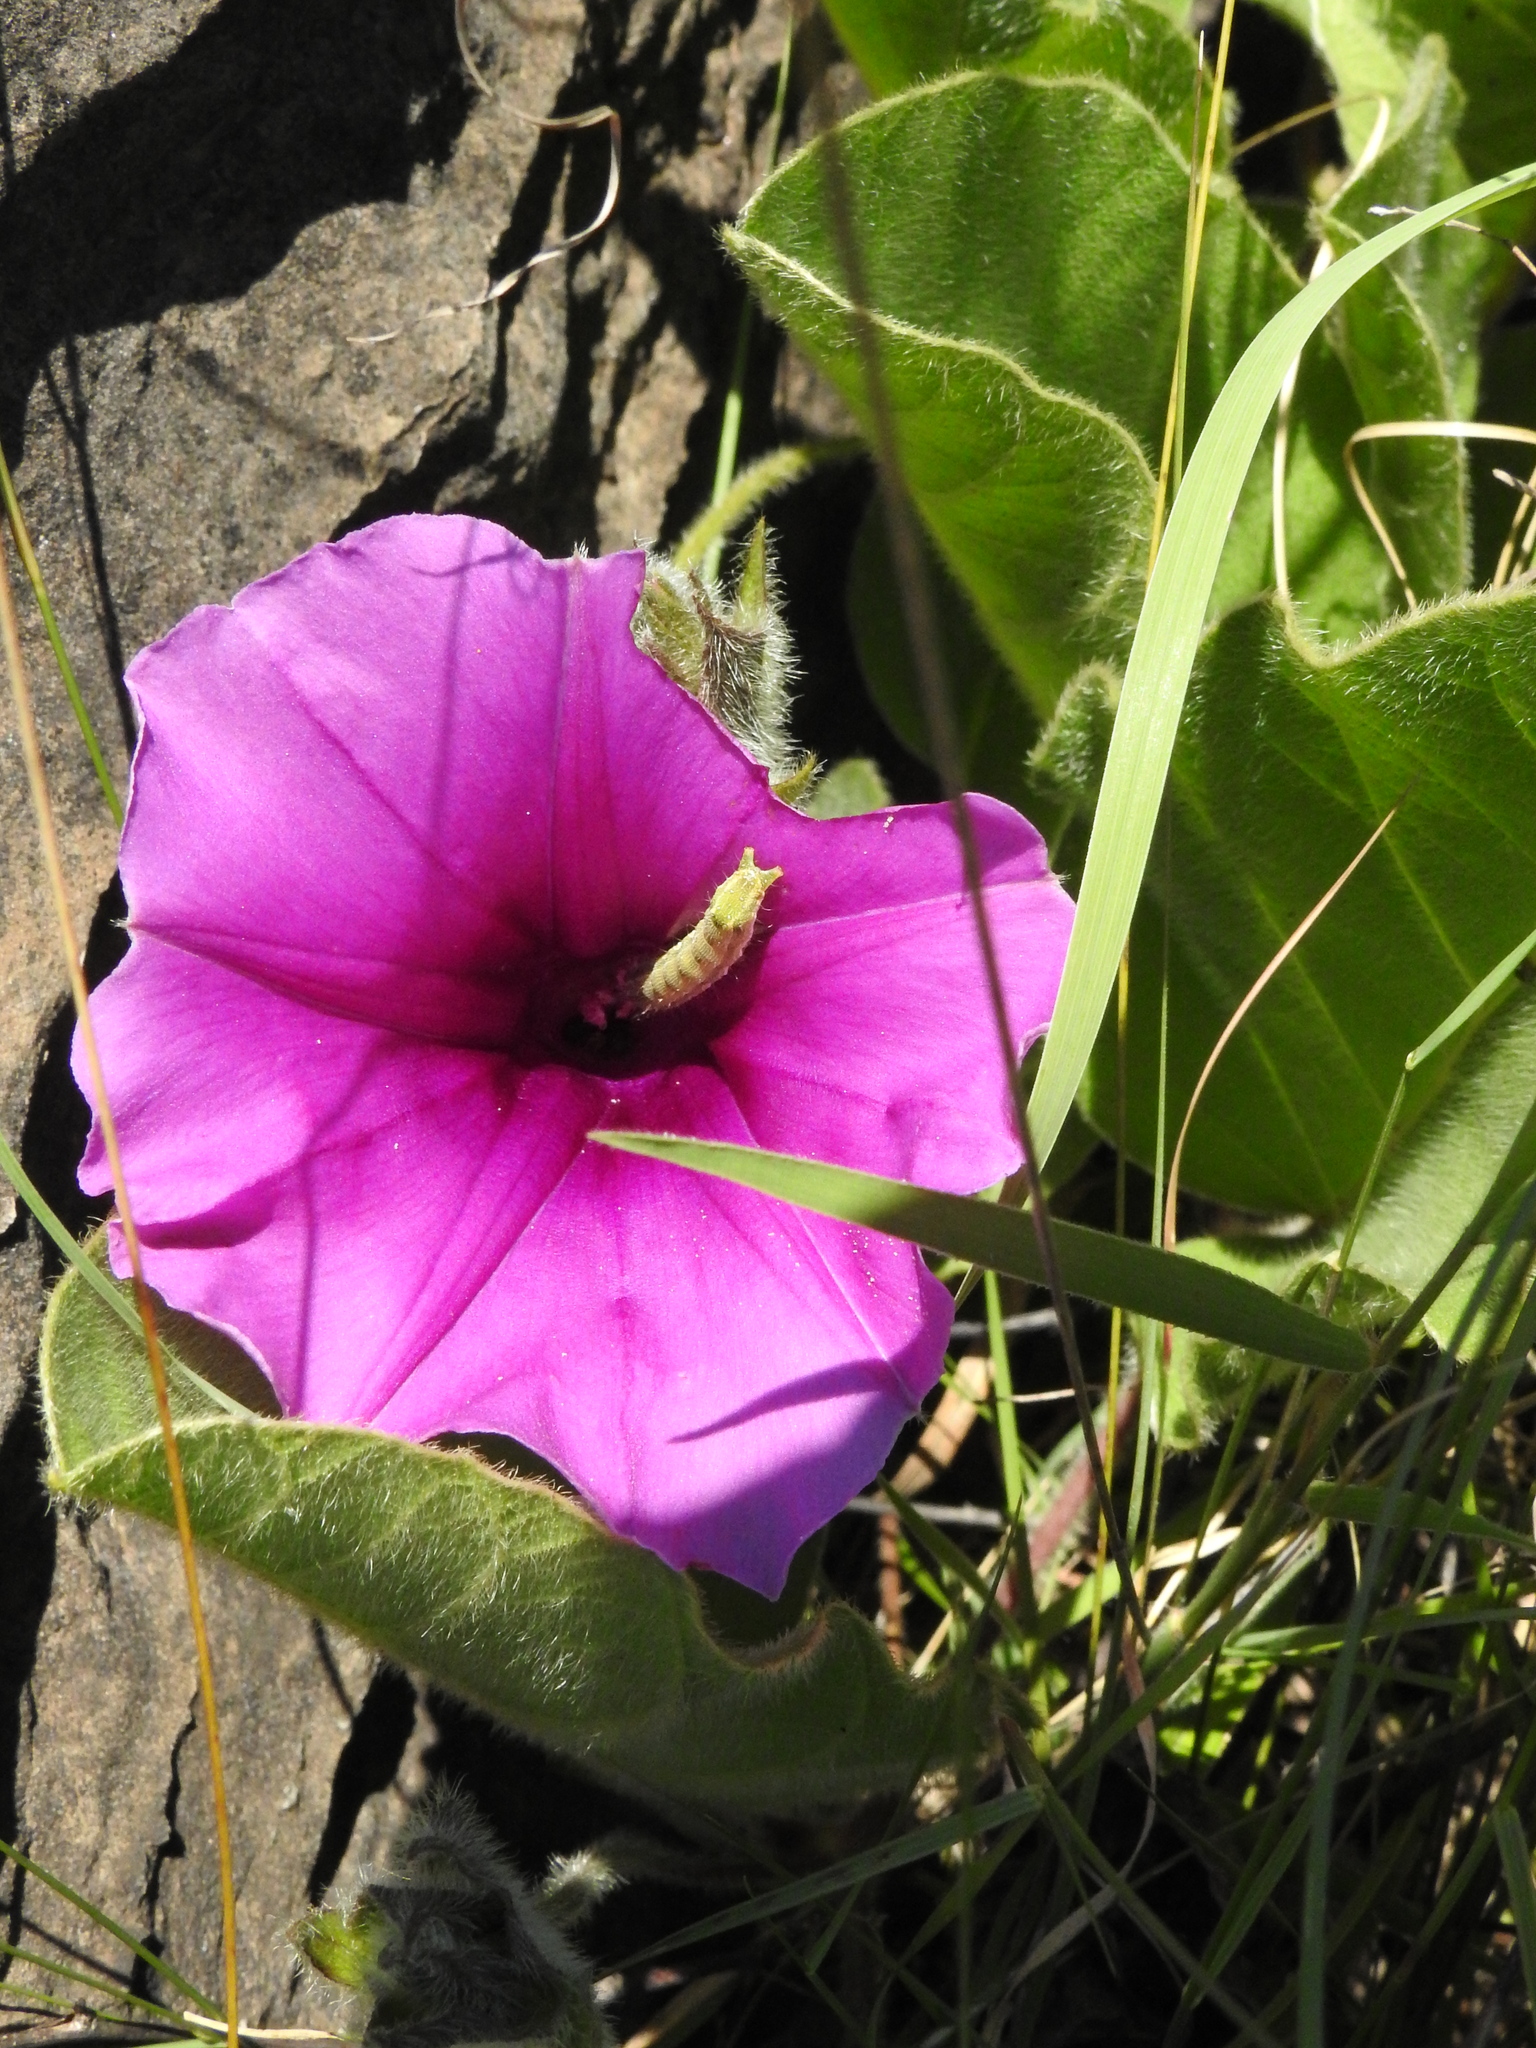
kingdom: Animalia
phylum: Arthropoda
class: Insecta
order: Lepidoptera
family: Noctuidae
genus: Helicoverpa
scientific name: Helicoverpa armigera
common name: Cotton bollworm
